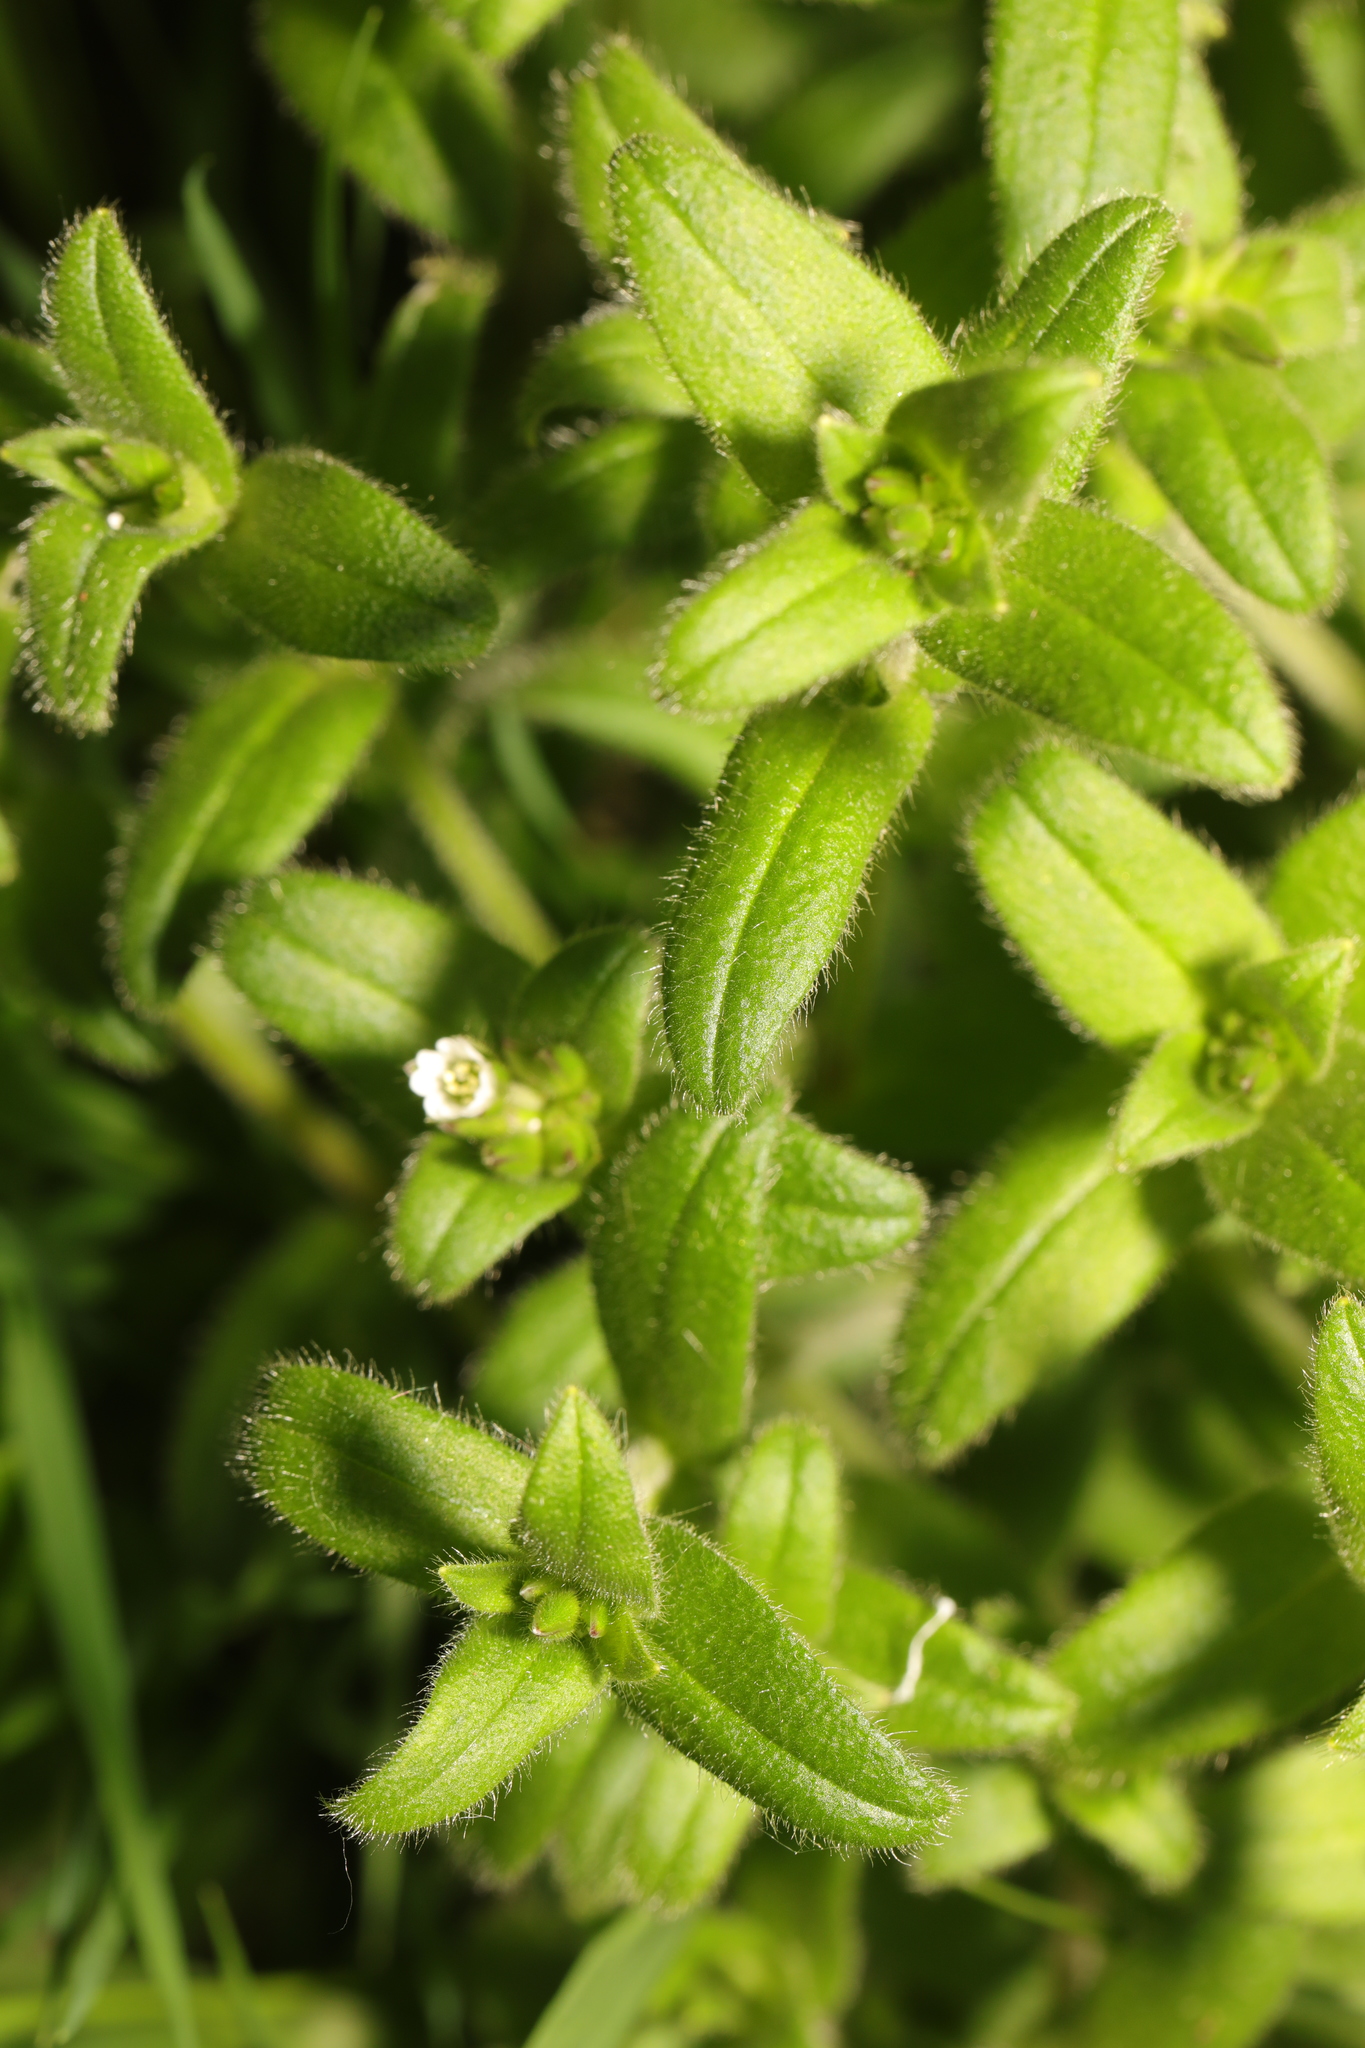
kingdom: Plantae
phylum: Tracheophyta
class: Magnoliopsida
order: Caryophyllales
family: Caryophyllaceae
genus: Cerastium
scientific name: Cerastium fontanum
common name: Common mouse-ear
